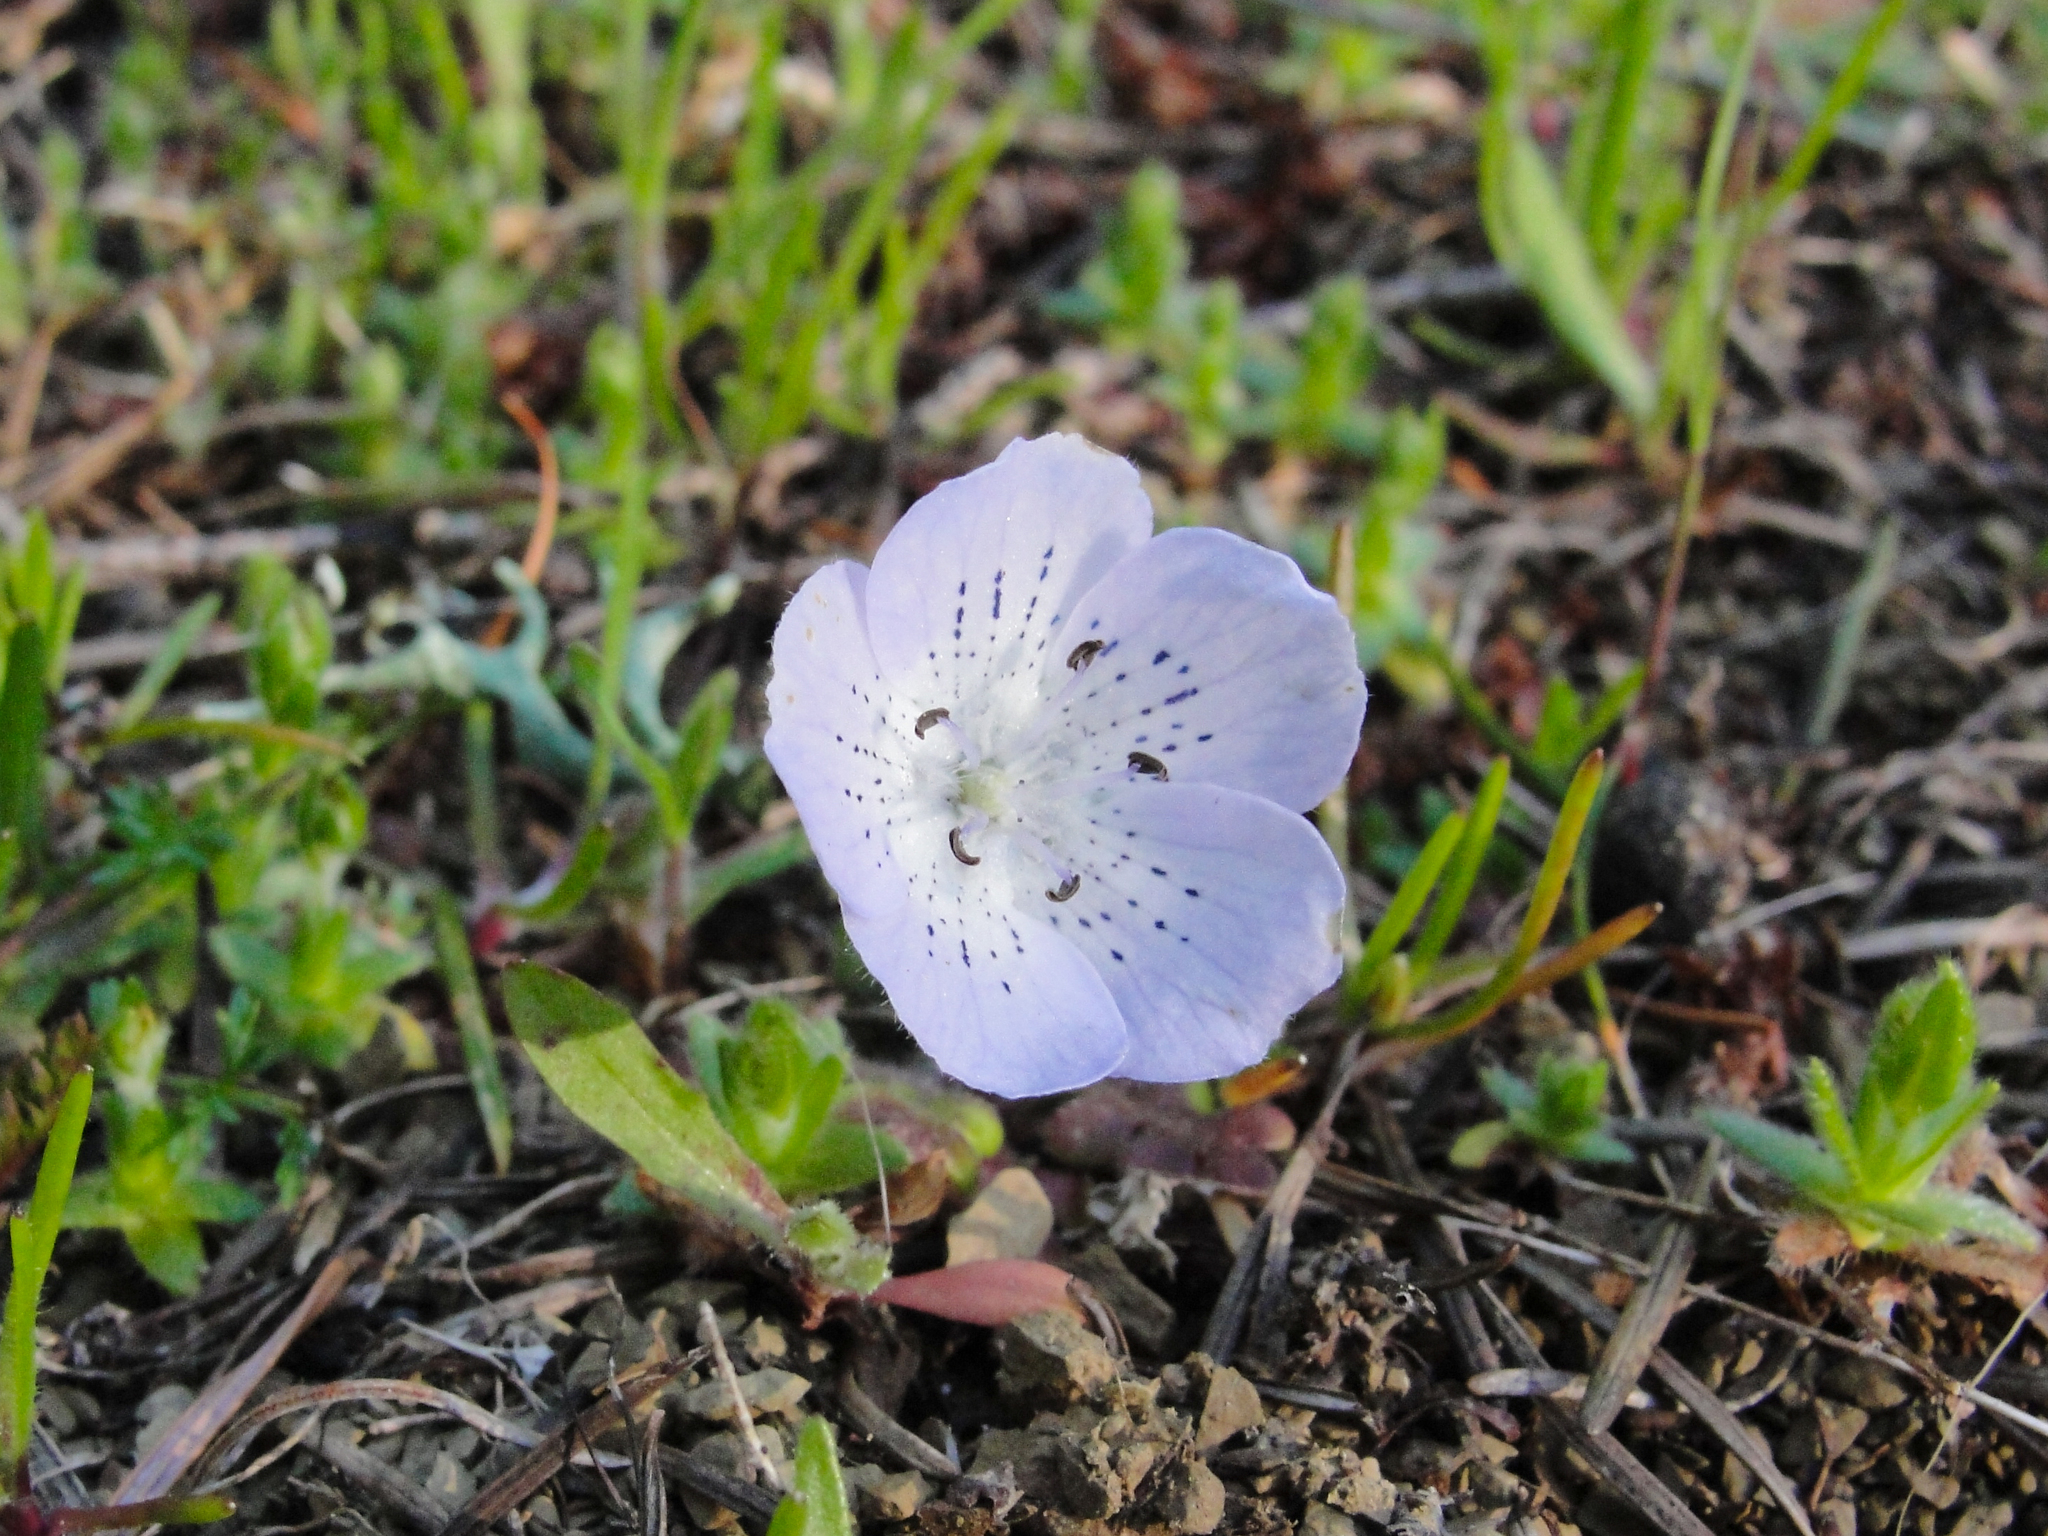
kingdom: Plantae
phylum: Tracheophyta
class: Magnoliopsida
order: Boraginales
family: Hydrophyllaceae
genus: Nemophila
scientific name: Nemophila menziesii
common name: Baby's-blue-eyes
